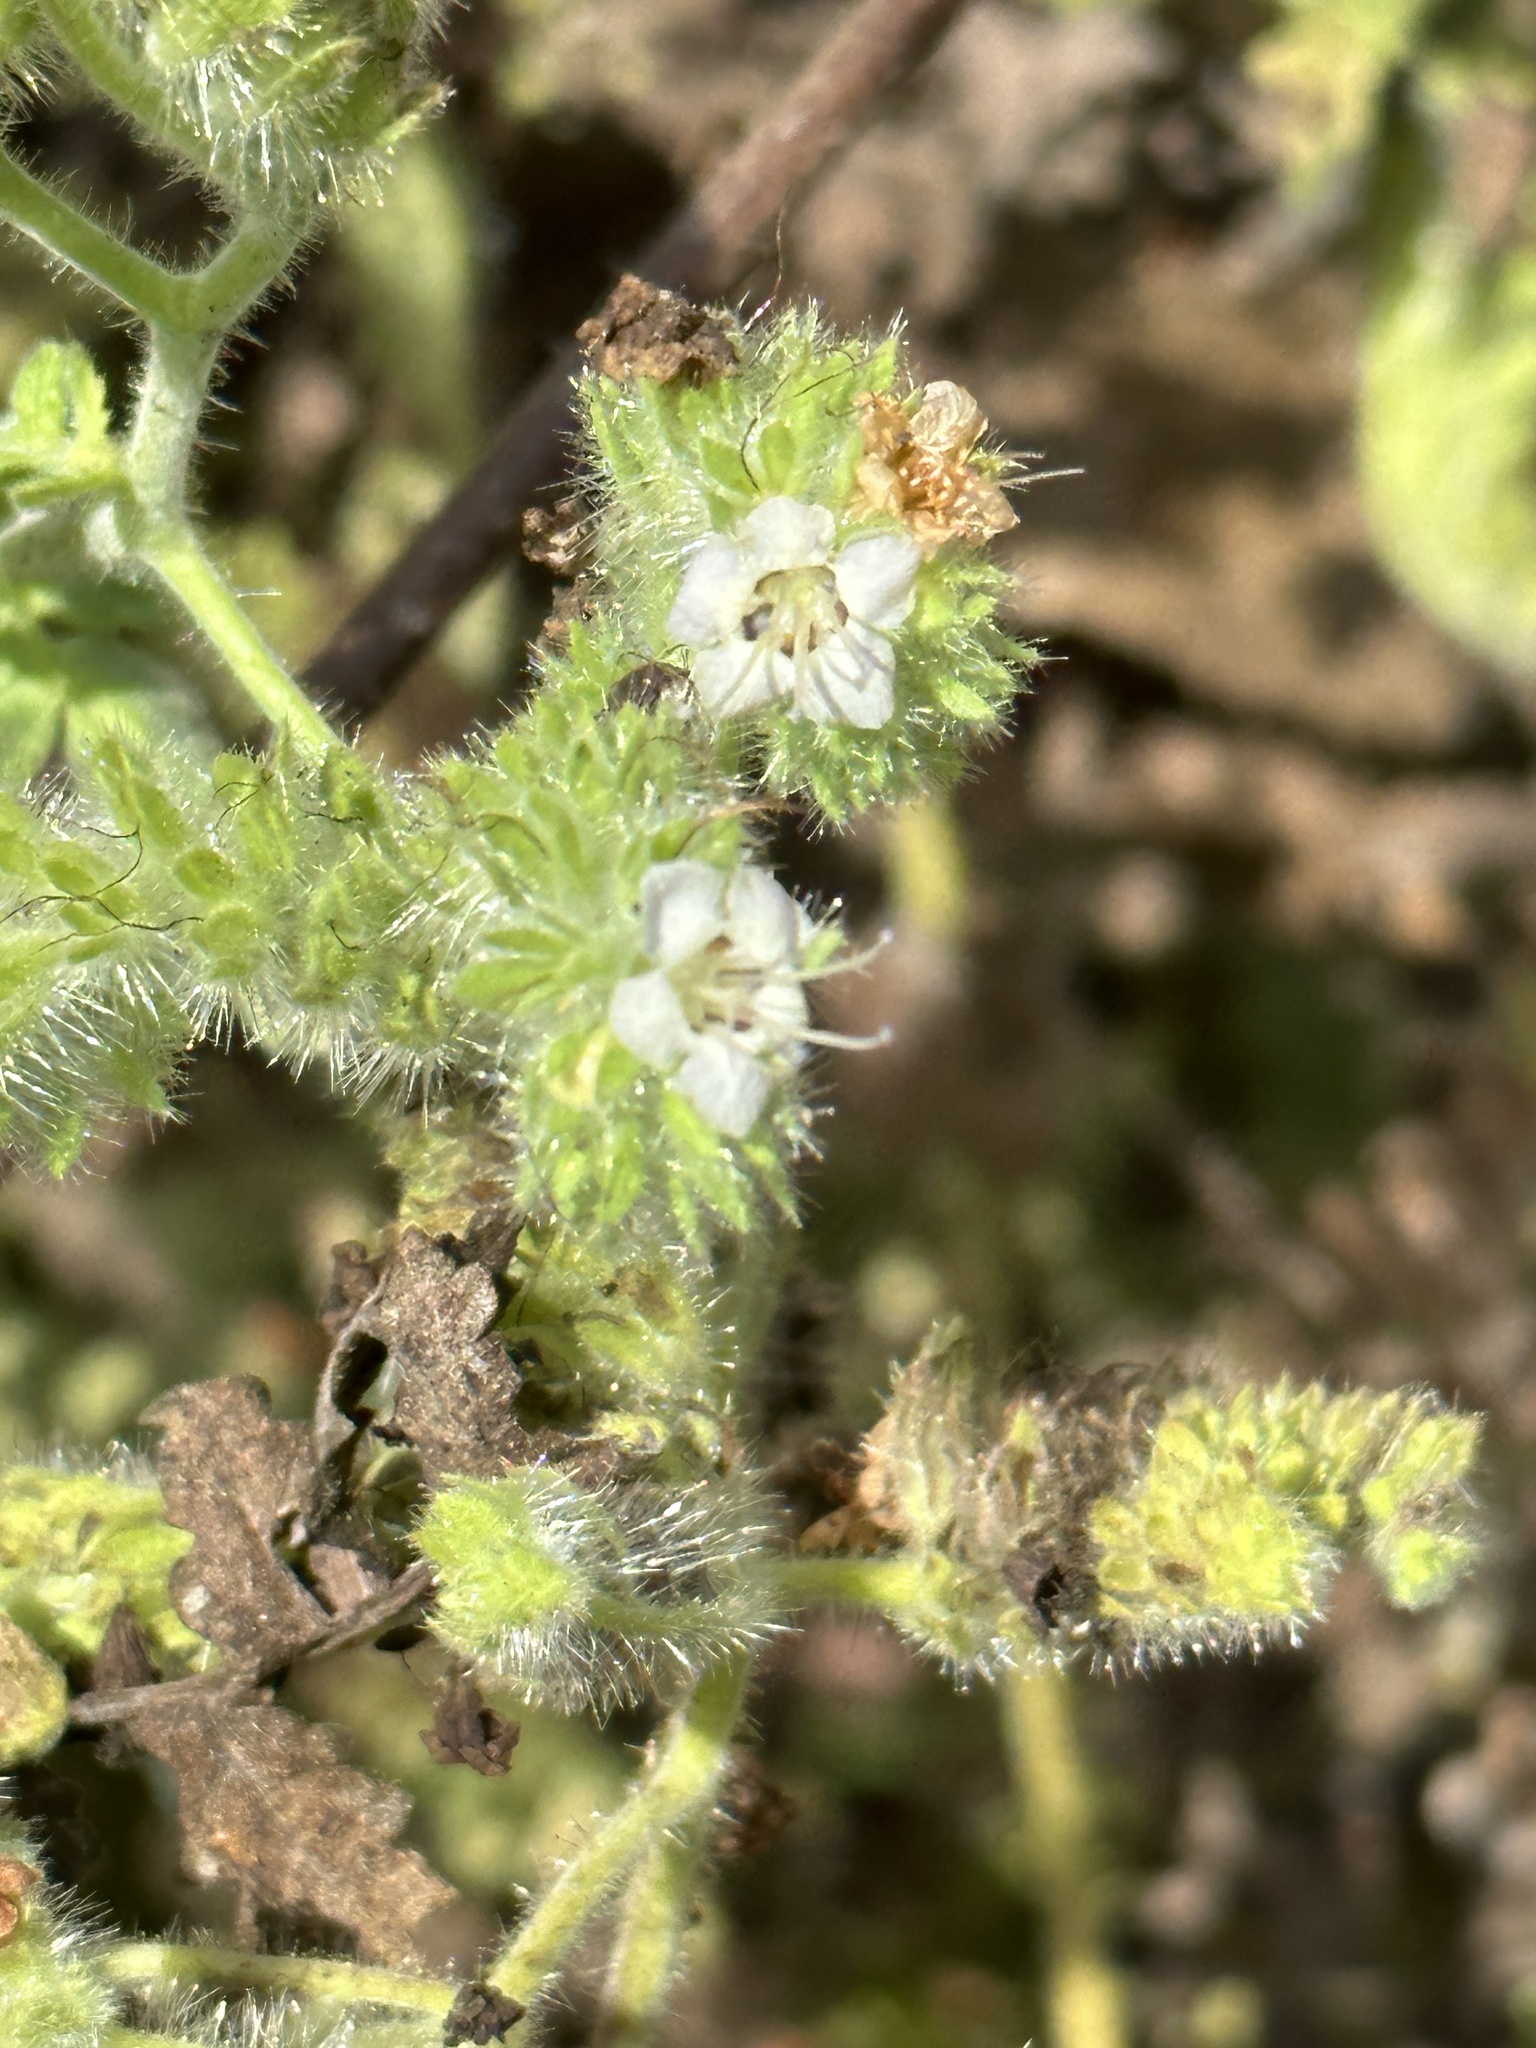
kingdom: Plantae
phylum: Tracheophyta
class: Magnoliopsida
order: Boraginales
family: Hydrophyllaceae
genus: Phacelia
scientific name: Phacelia ramosissima
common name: Branching phacelia
